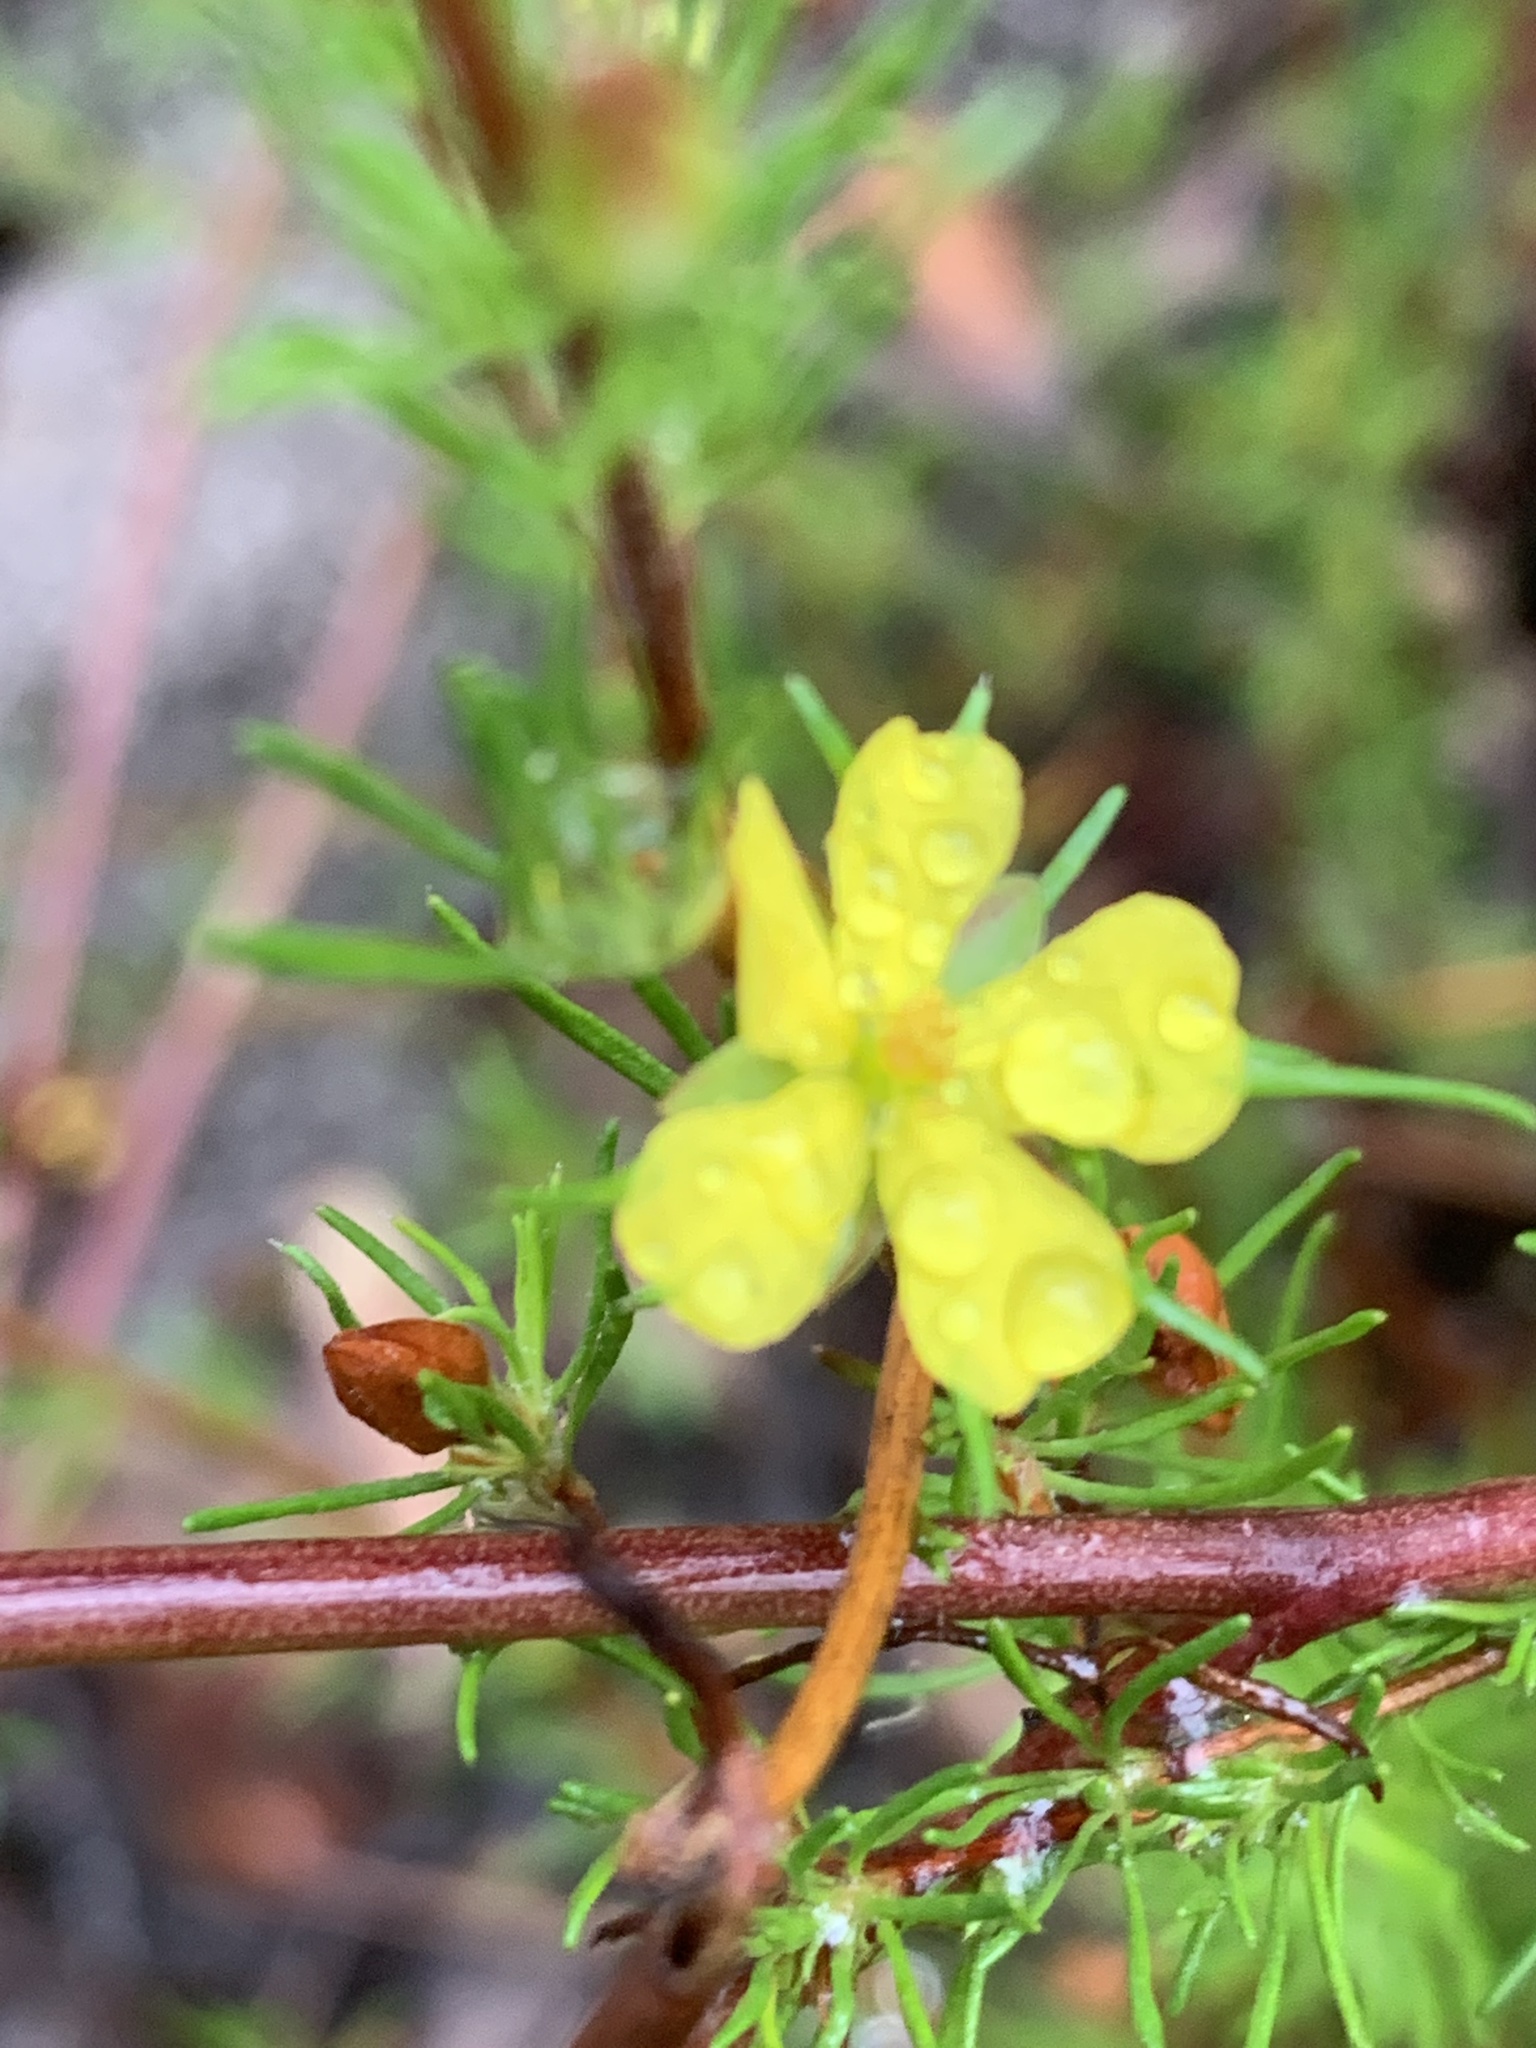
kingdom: Plantae
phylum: Tracheophyta
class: Magnoliopsida
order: Dilleniales
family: Dilleniaceae
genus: Hibbertia
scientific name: Hibbertia fasciculata
